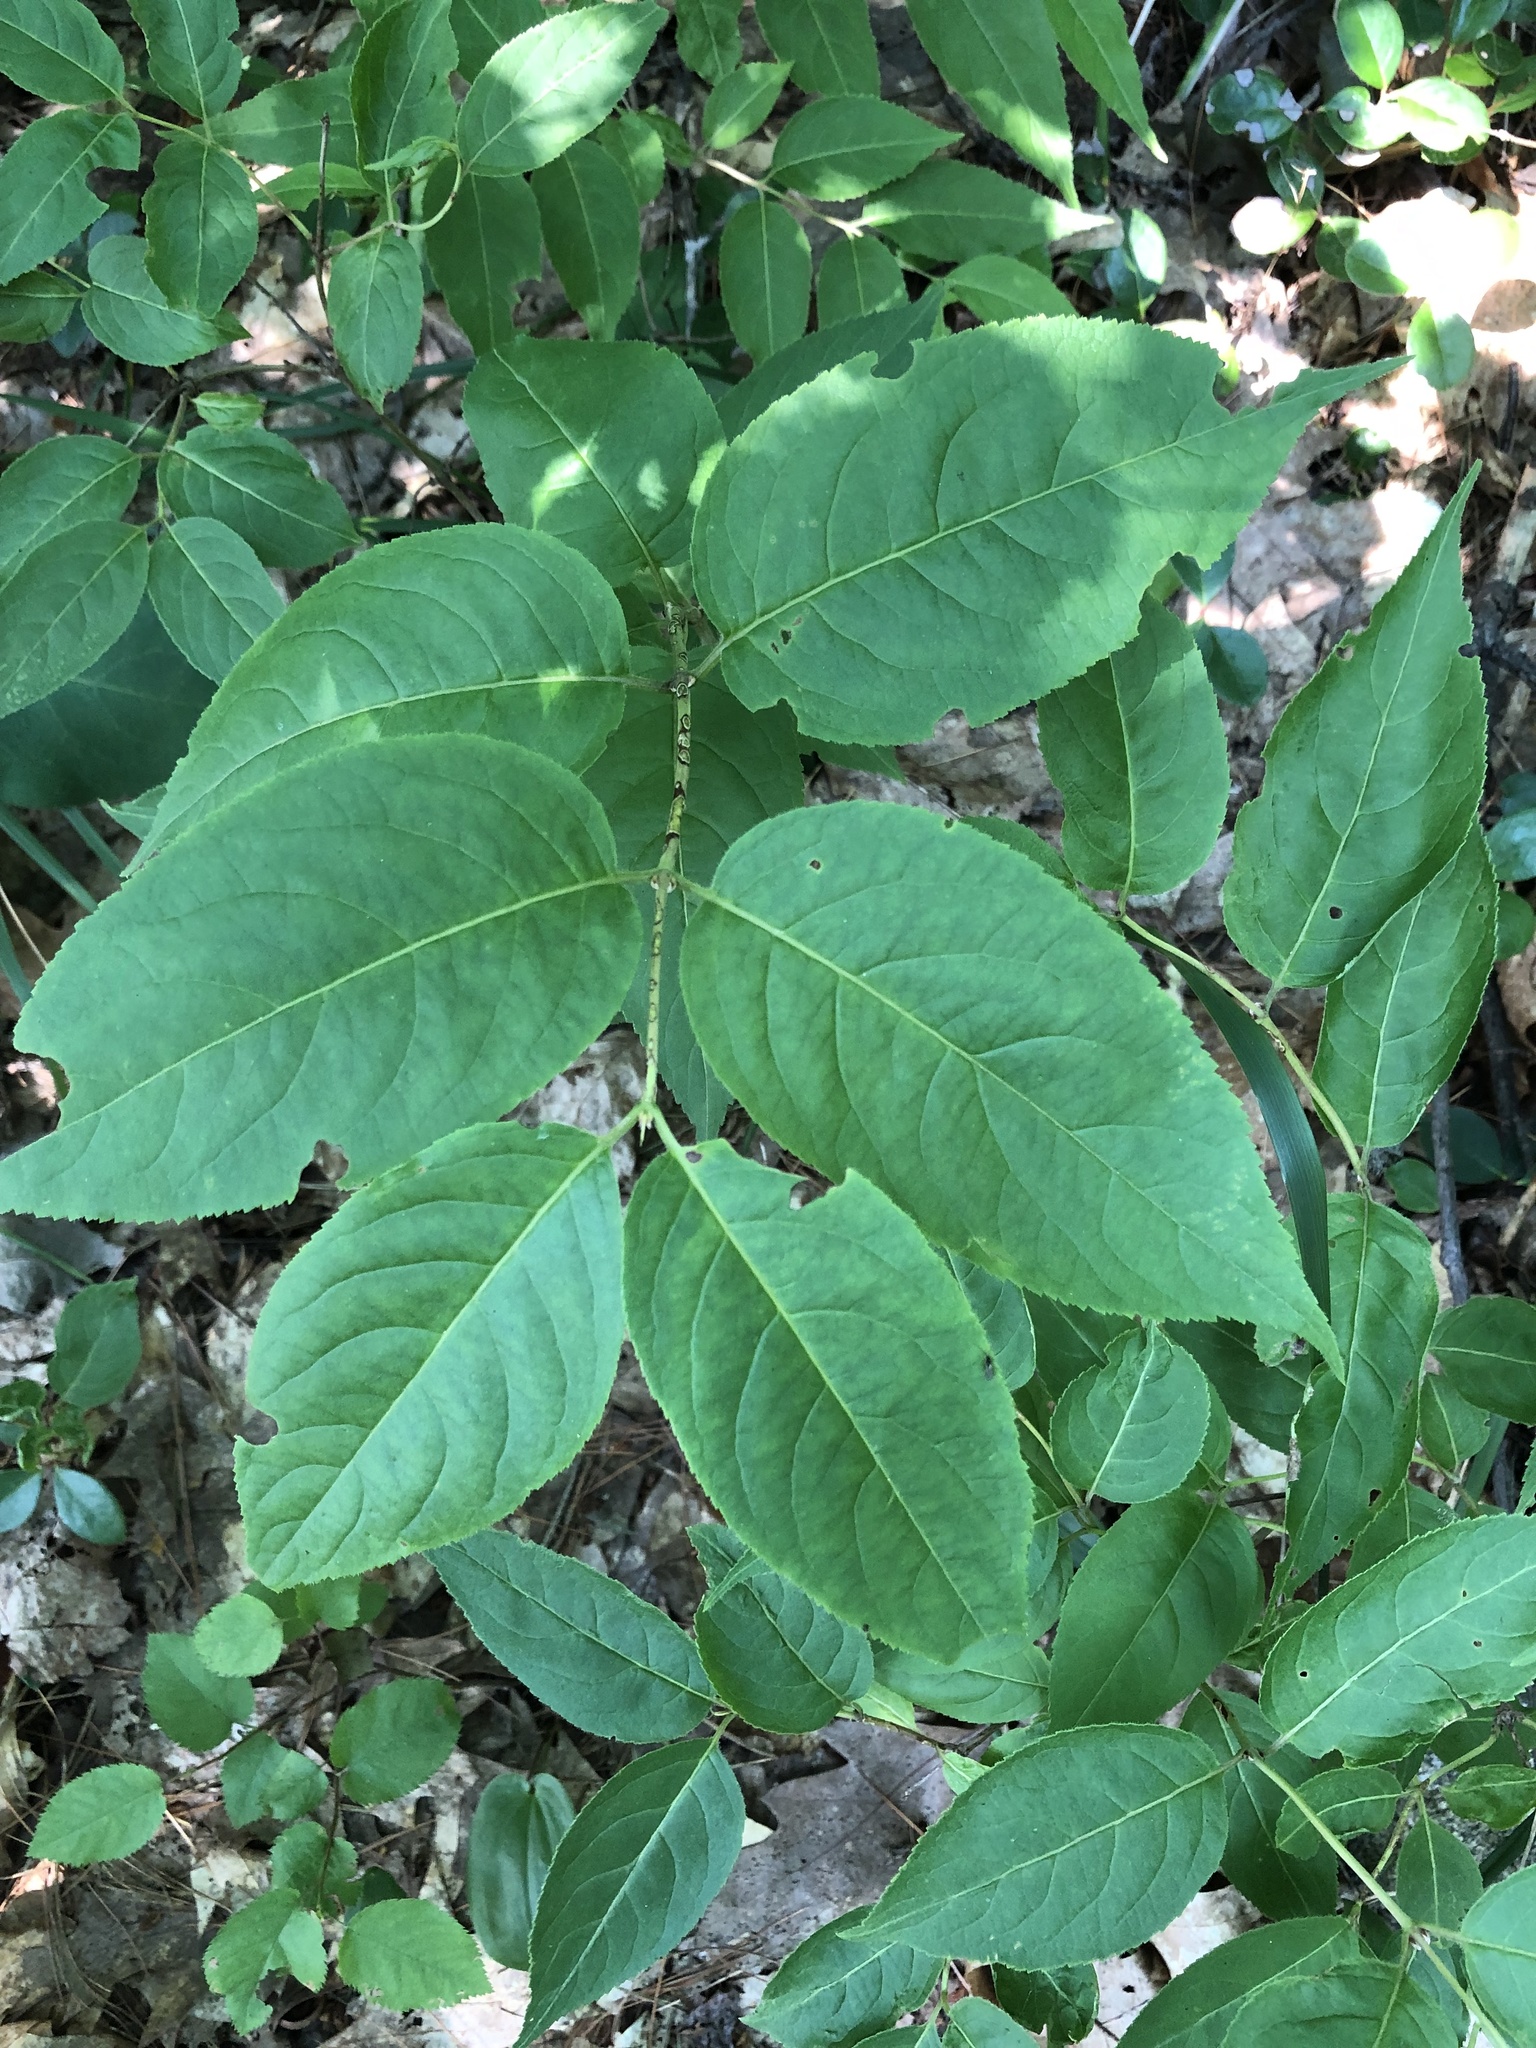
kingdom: Plantae
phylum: Tracheophyta
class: Magnoliopsida
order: Dipsacales
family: Caprifoliaceae
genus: Diervilla
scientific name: Diervilla lonicera
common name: Bush-honeysuckle
